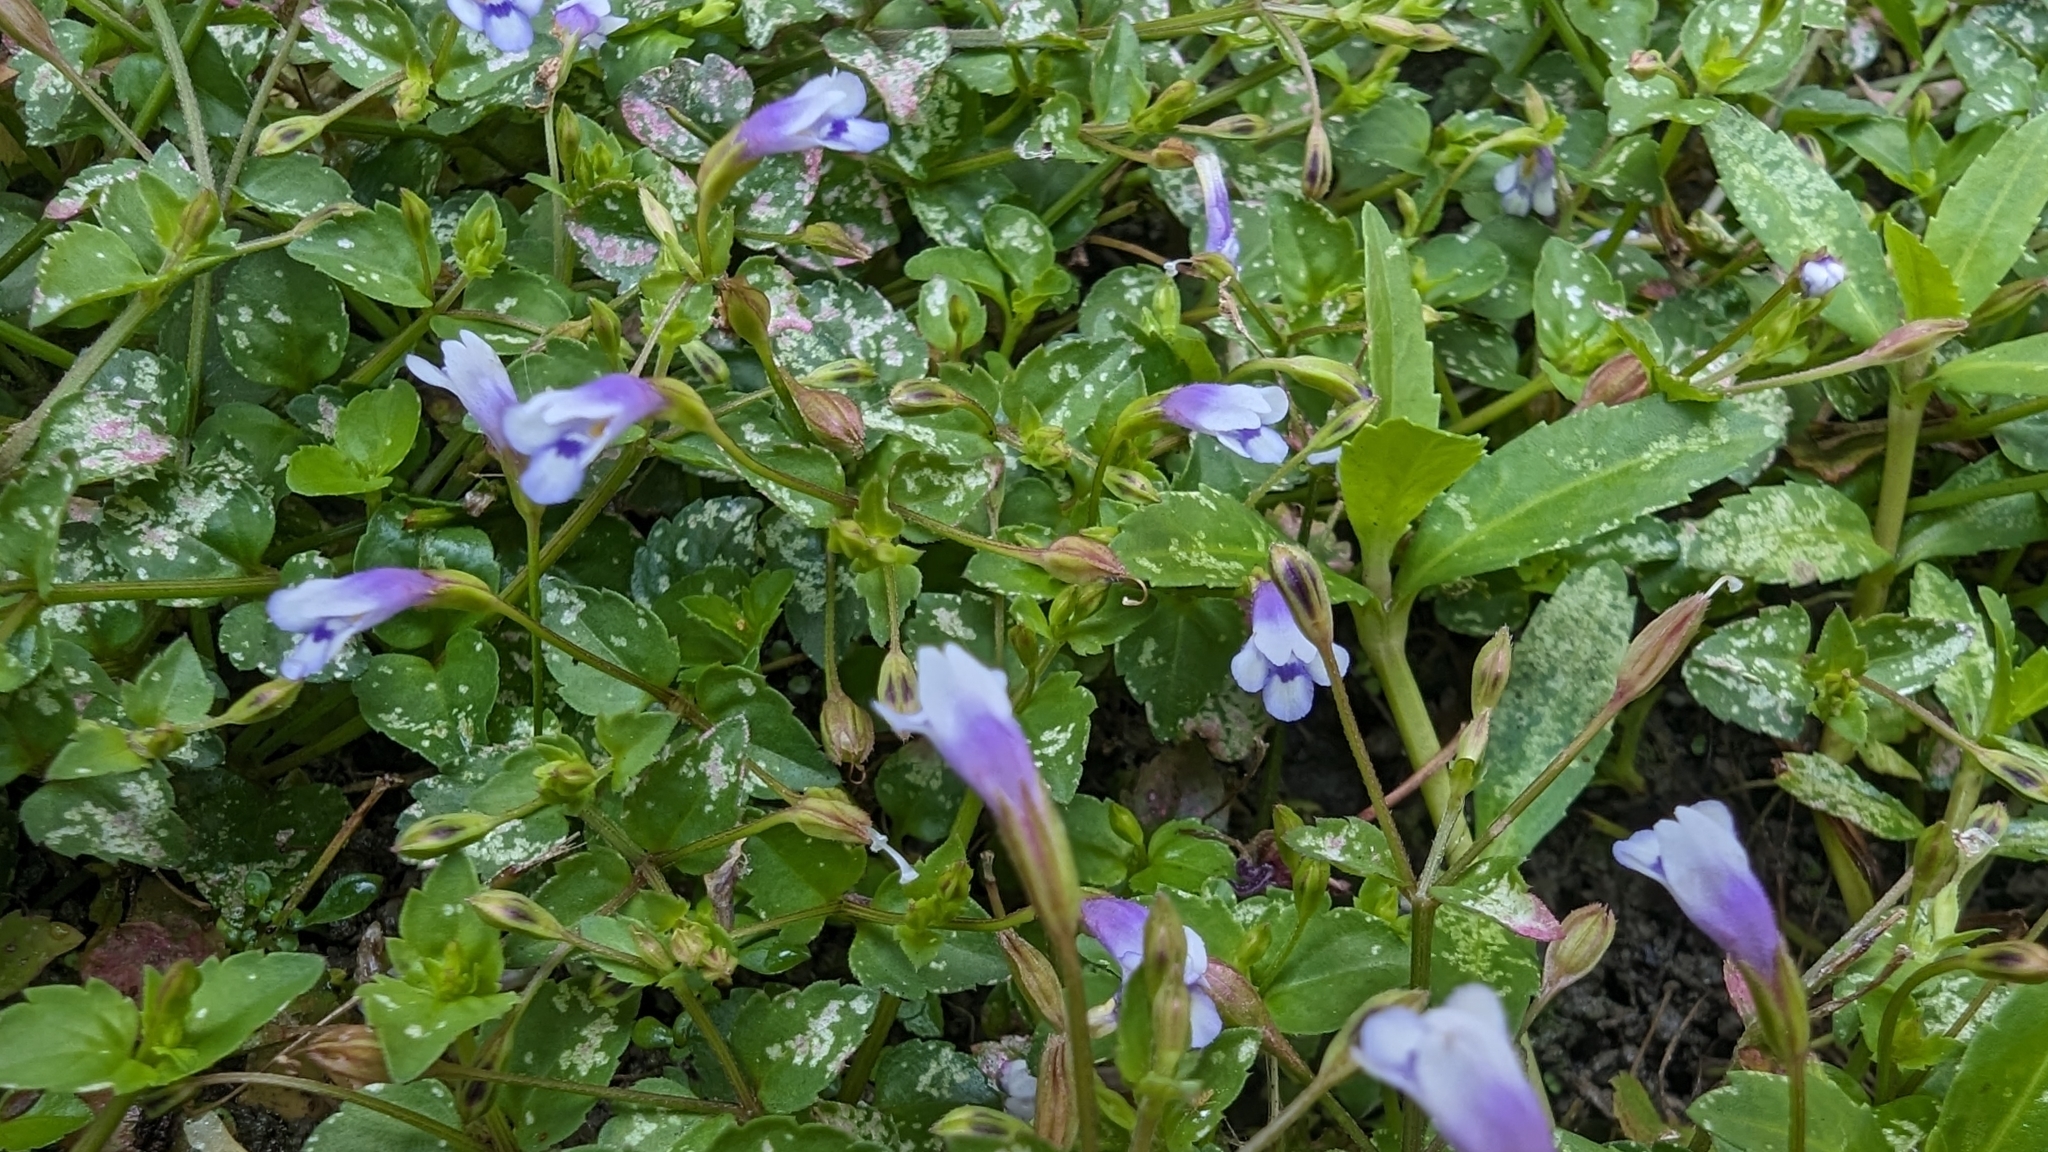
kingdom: Plantae
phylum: Tracheophyta
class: Magnoliopsida
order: Lamiales
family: Linderniaceae
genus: Torenia
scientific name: Torenia crustacea
